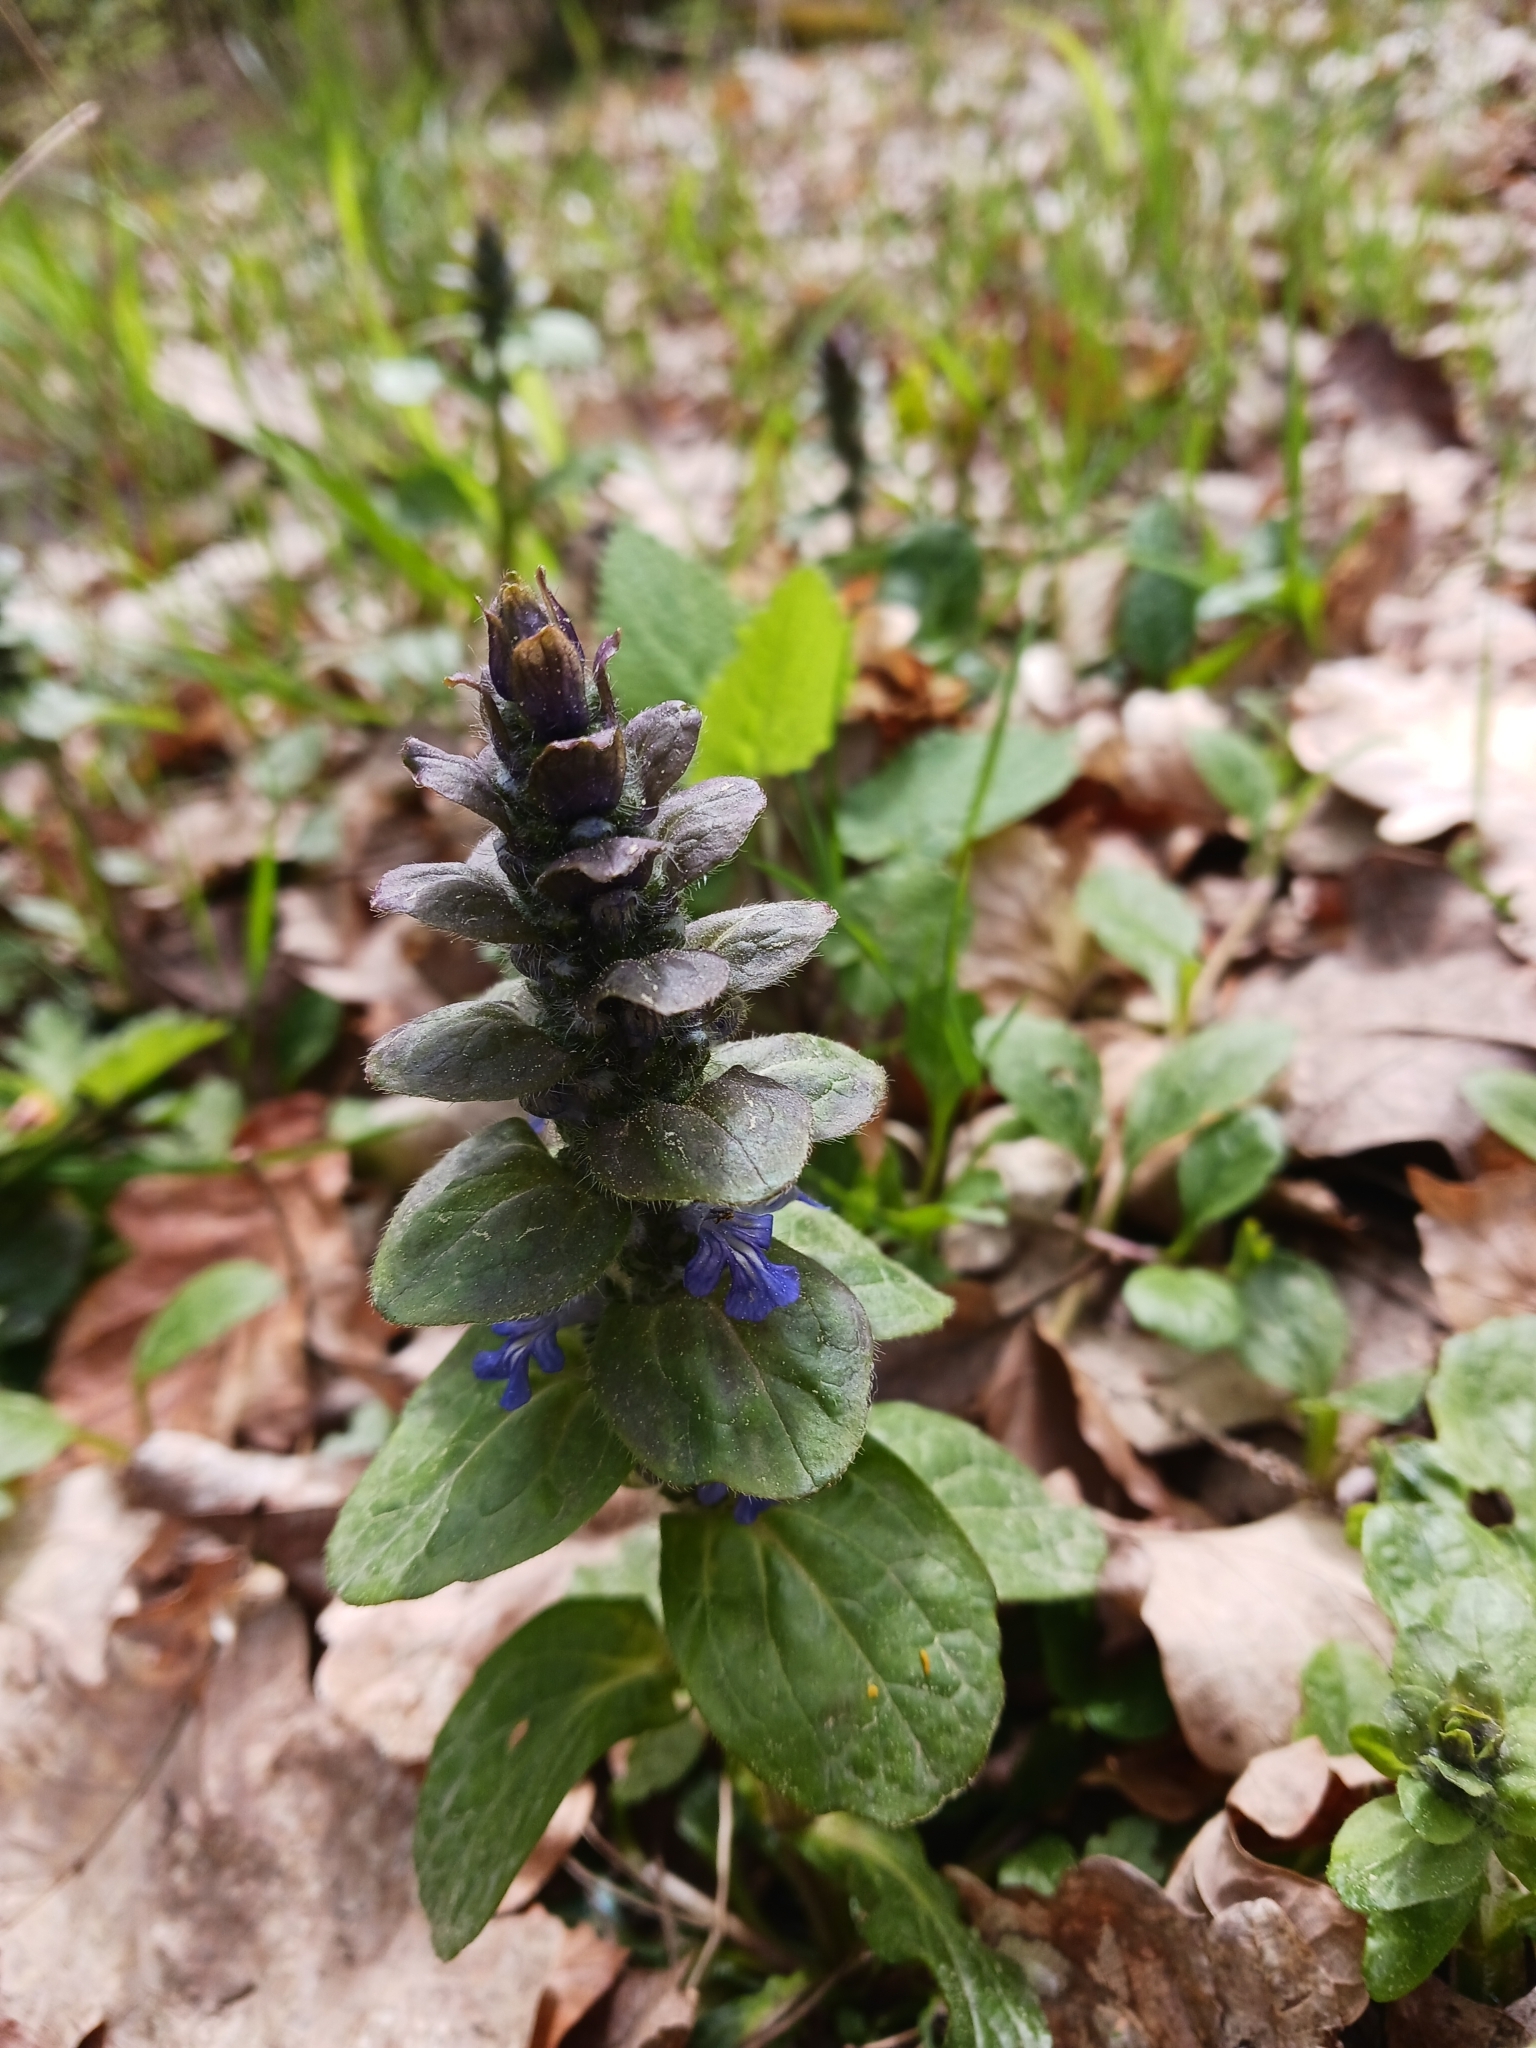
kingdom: Plantae
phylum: Tracheophyta
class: Magnoliopsida
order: Lamiales
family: Lamiaceae
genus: Ajuga
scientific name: Ajuga reptans
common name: Bugle
